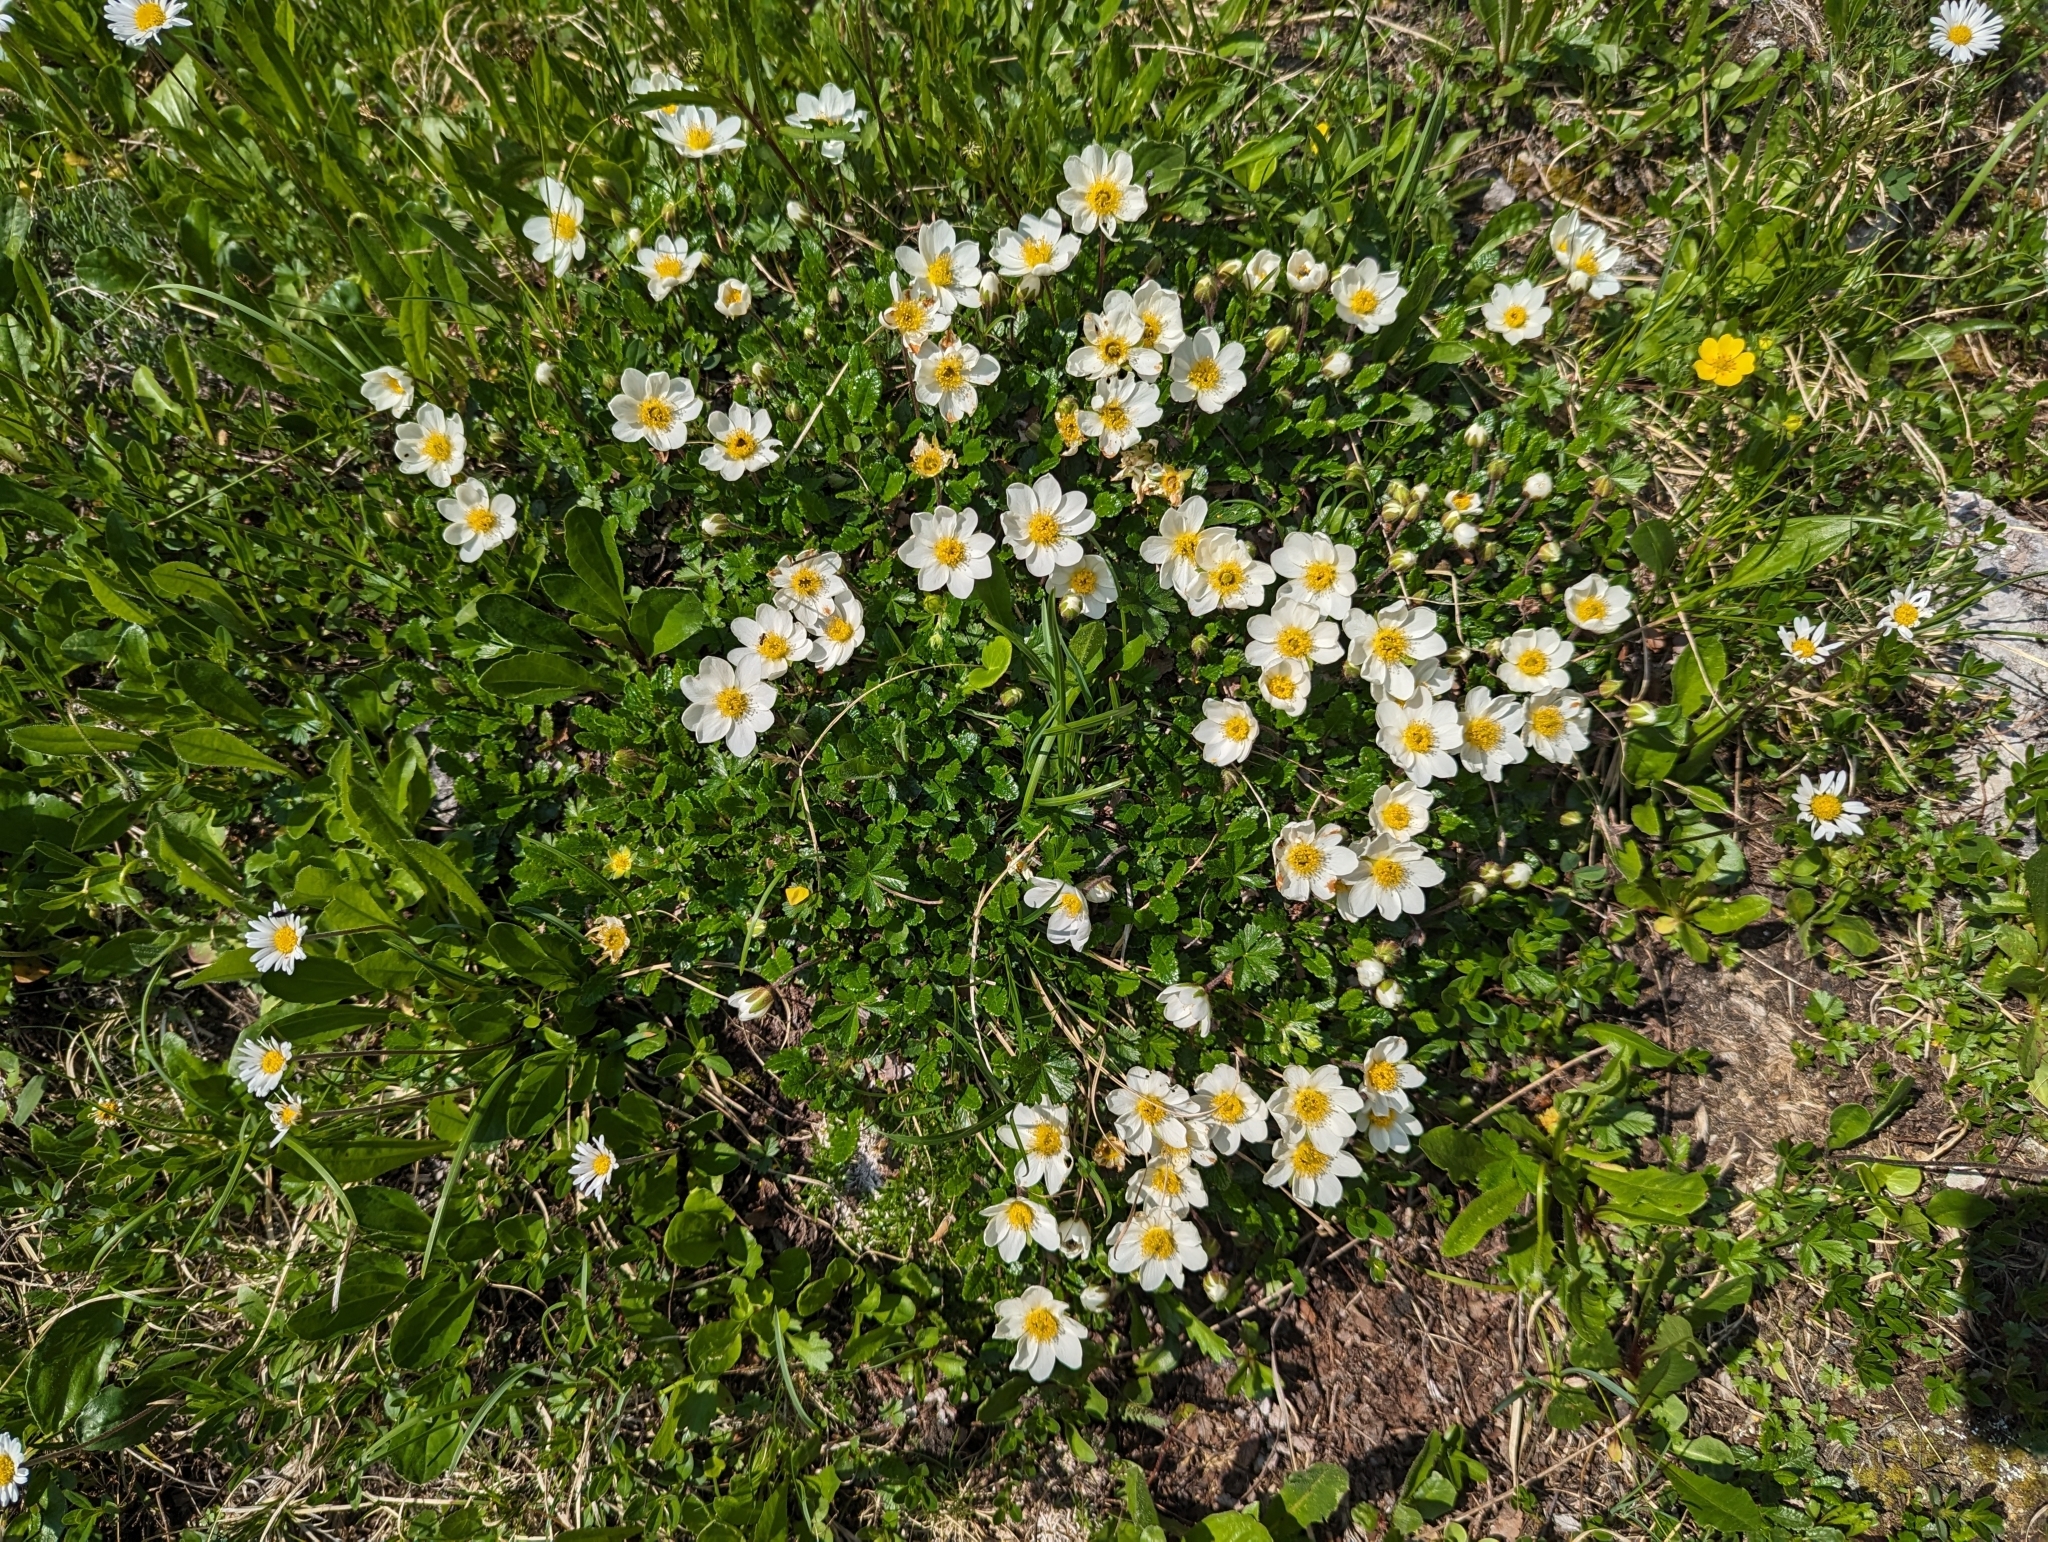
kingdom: Plantae
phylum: Tracheophyta
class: Magnoliopsida
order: Rosales
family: Rosaceae
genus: Dryas
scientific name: Dryas octopetala
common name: Eight-petal mountain-avens
